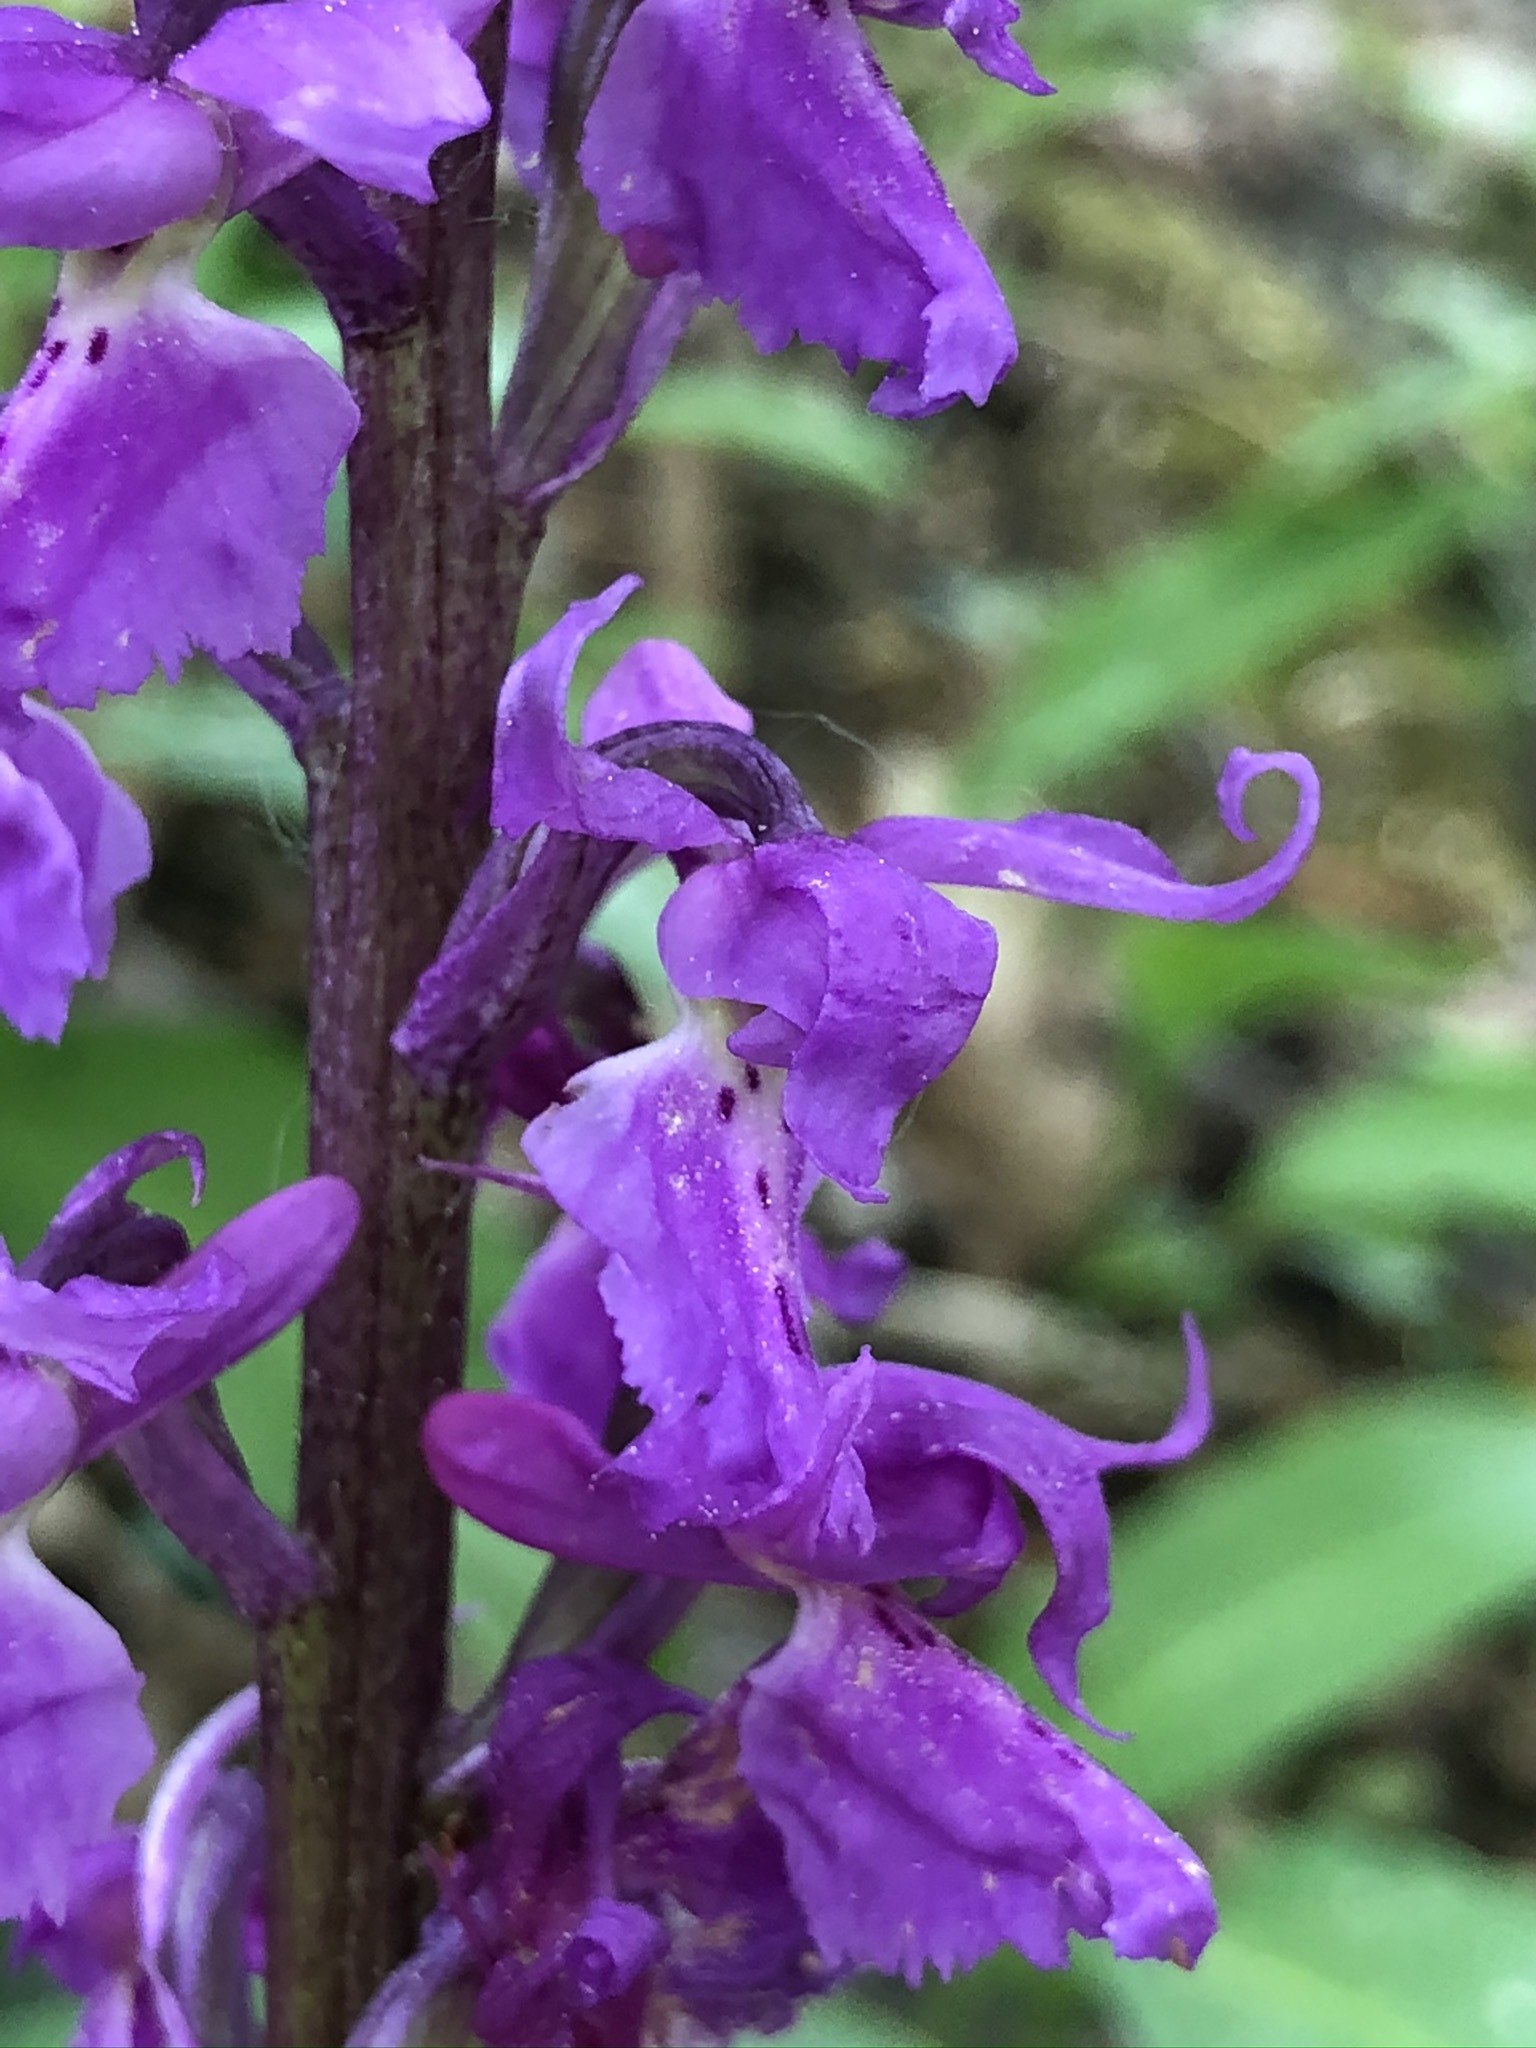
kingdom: Plantae
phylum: Tracheophyta
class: Liliopsida
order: Asparagales
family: Orchidaceae
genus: Orchis
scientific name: Orchis mascula
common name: Early-purple orchid
